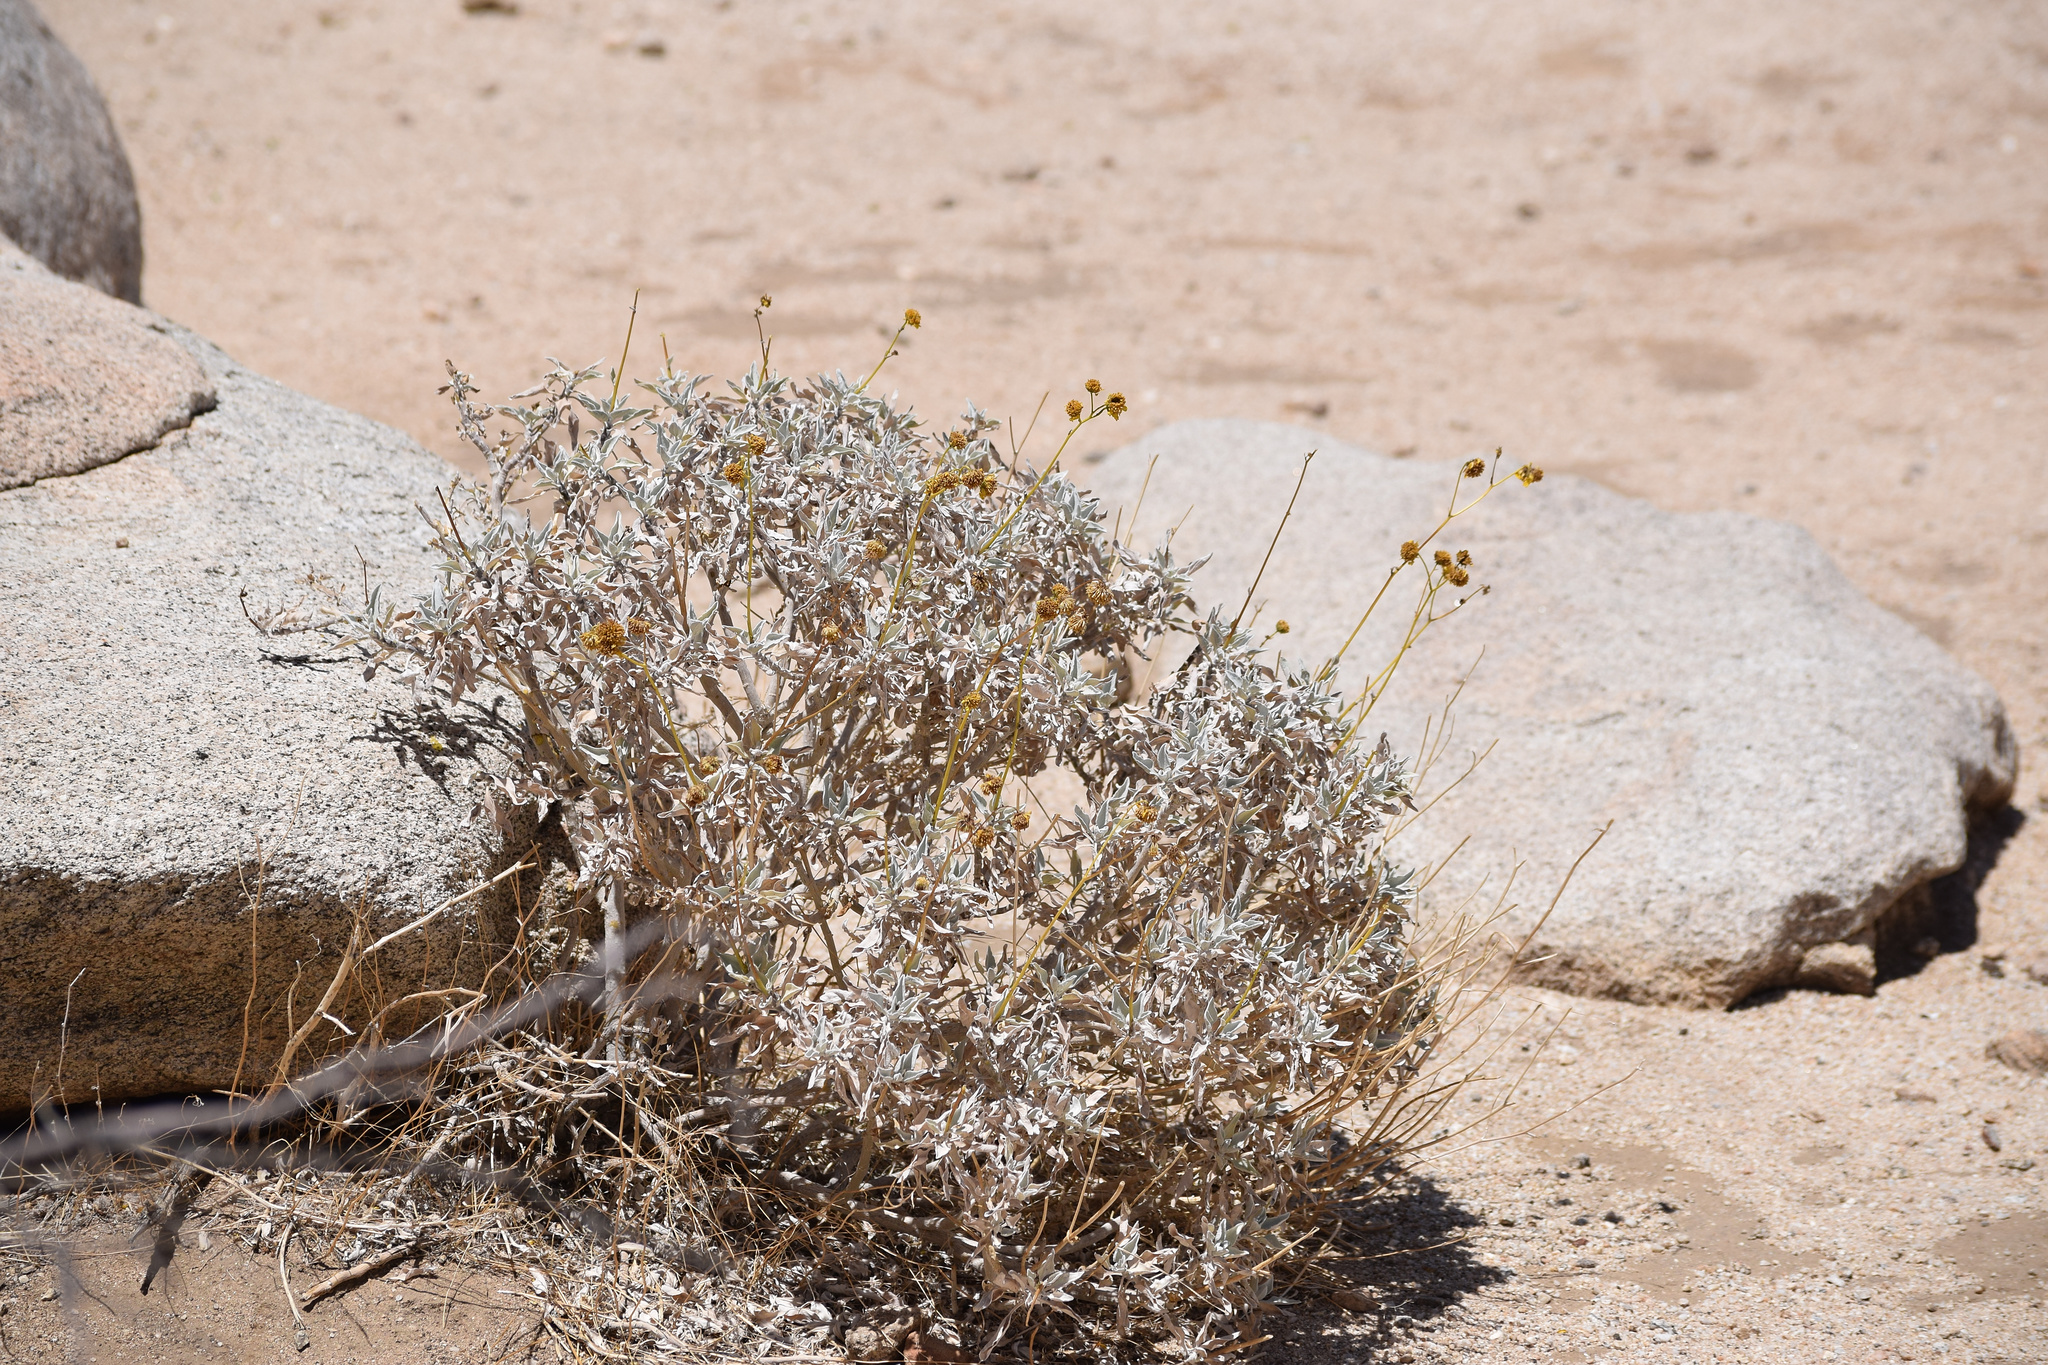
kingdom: Plantae
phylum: Tracheophyta
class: Magnoliopsida
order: Asterales
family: Asteraceae
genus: Encelia
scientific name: Encelia farinosa
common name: Brittlebush
